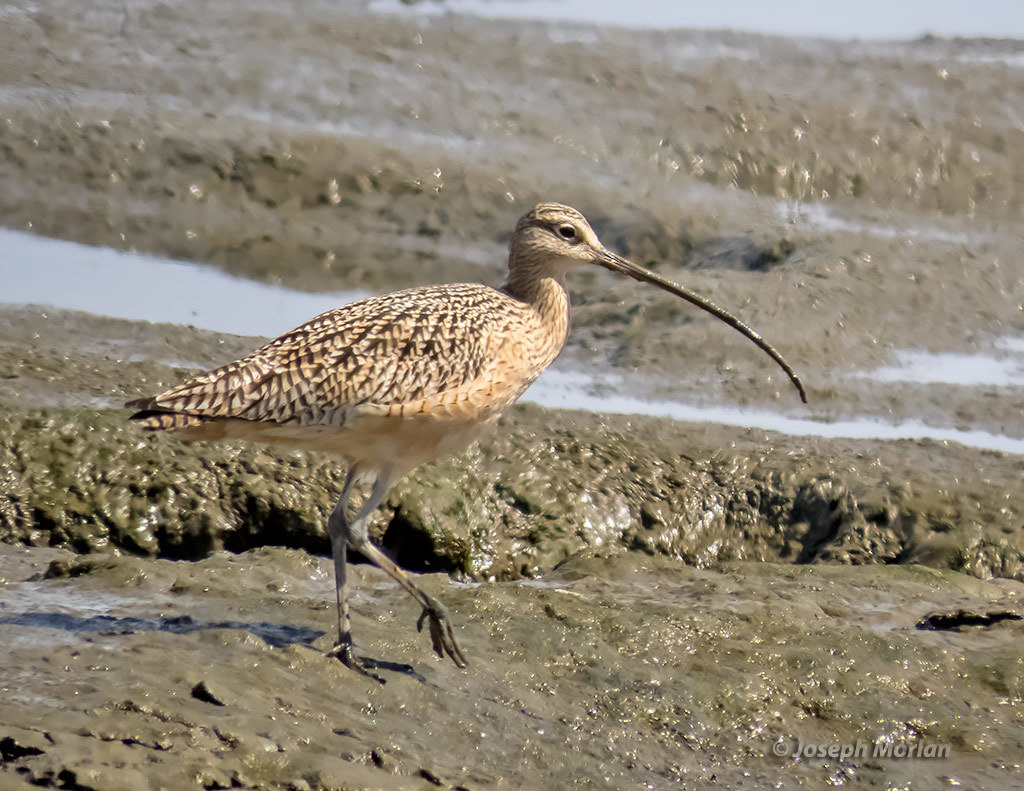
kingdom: Animalia
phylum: Chordata
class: Aves
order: Charadriiformes
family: Scolopacidae
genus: Numenius
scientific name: Numenius americanus
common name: Long-billed curlew
